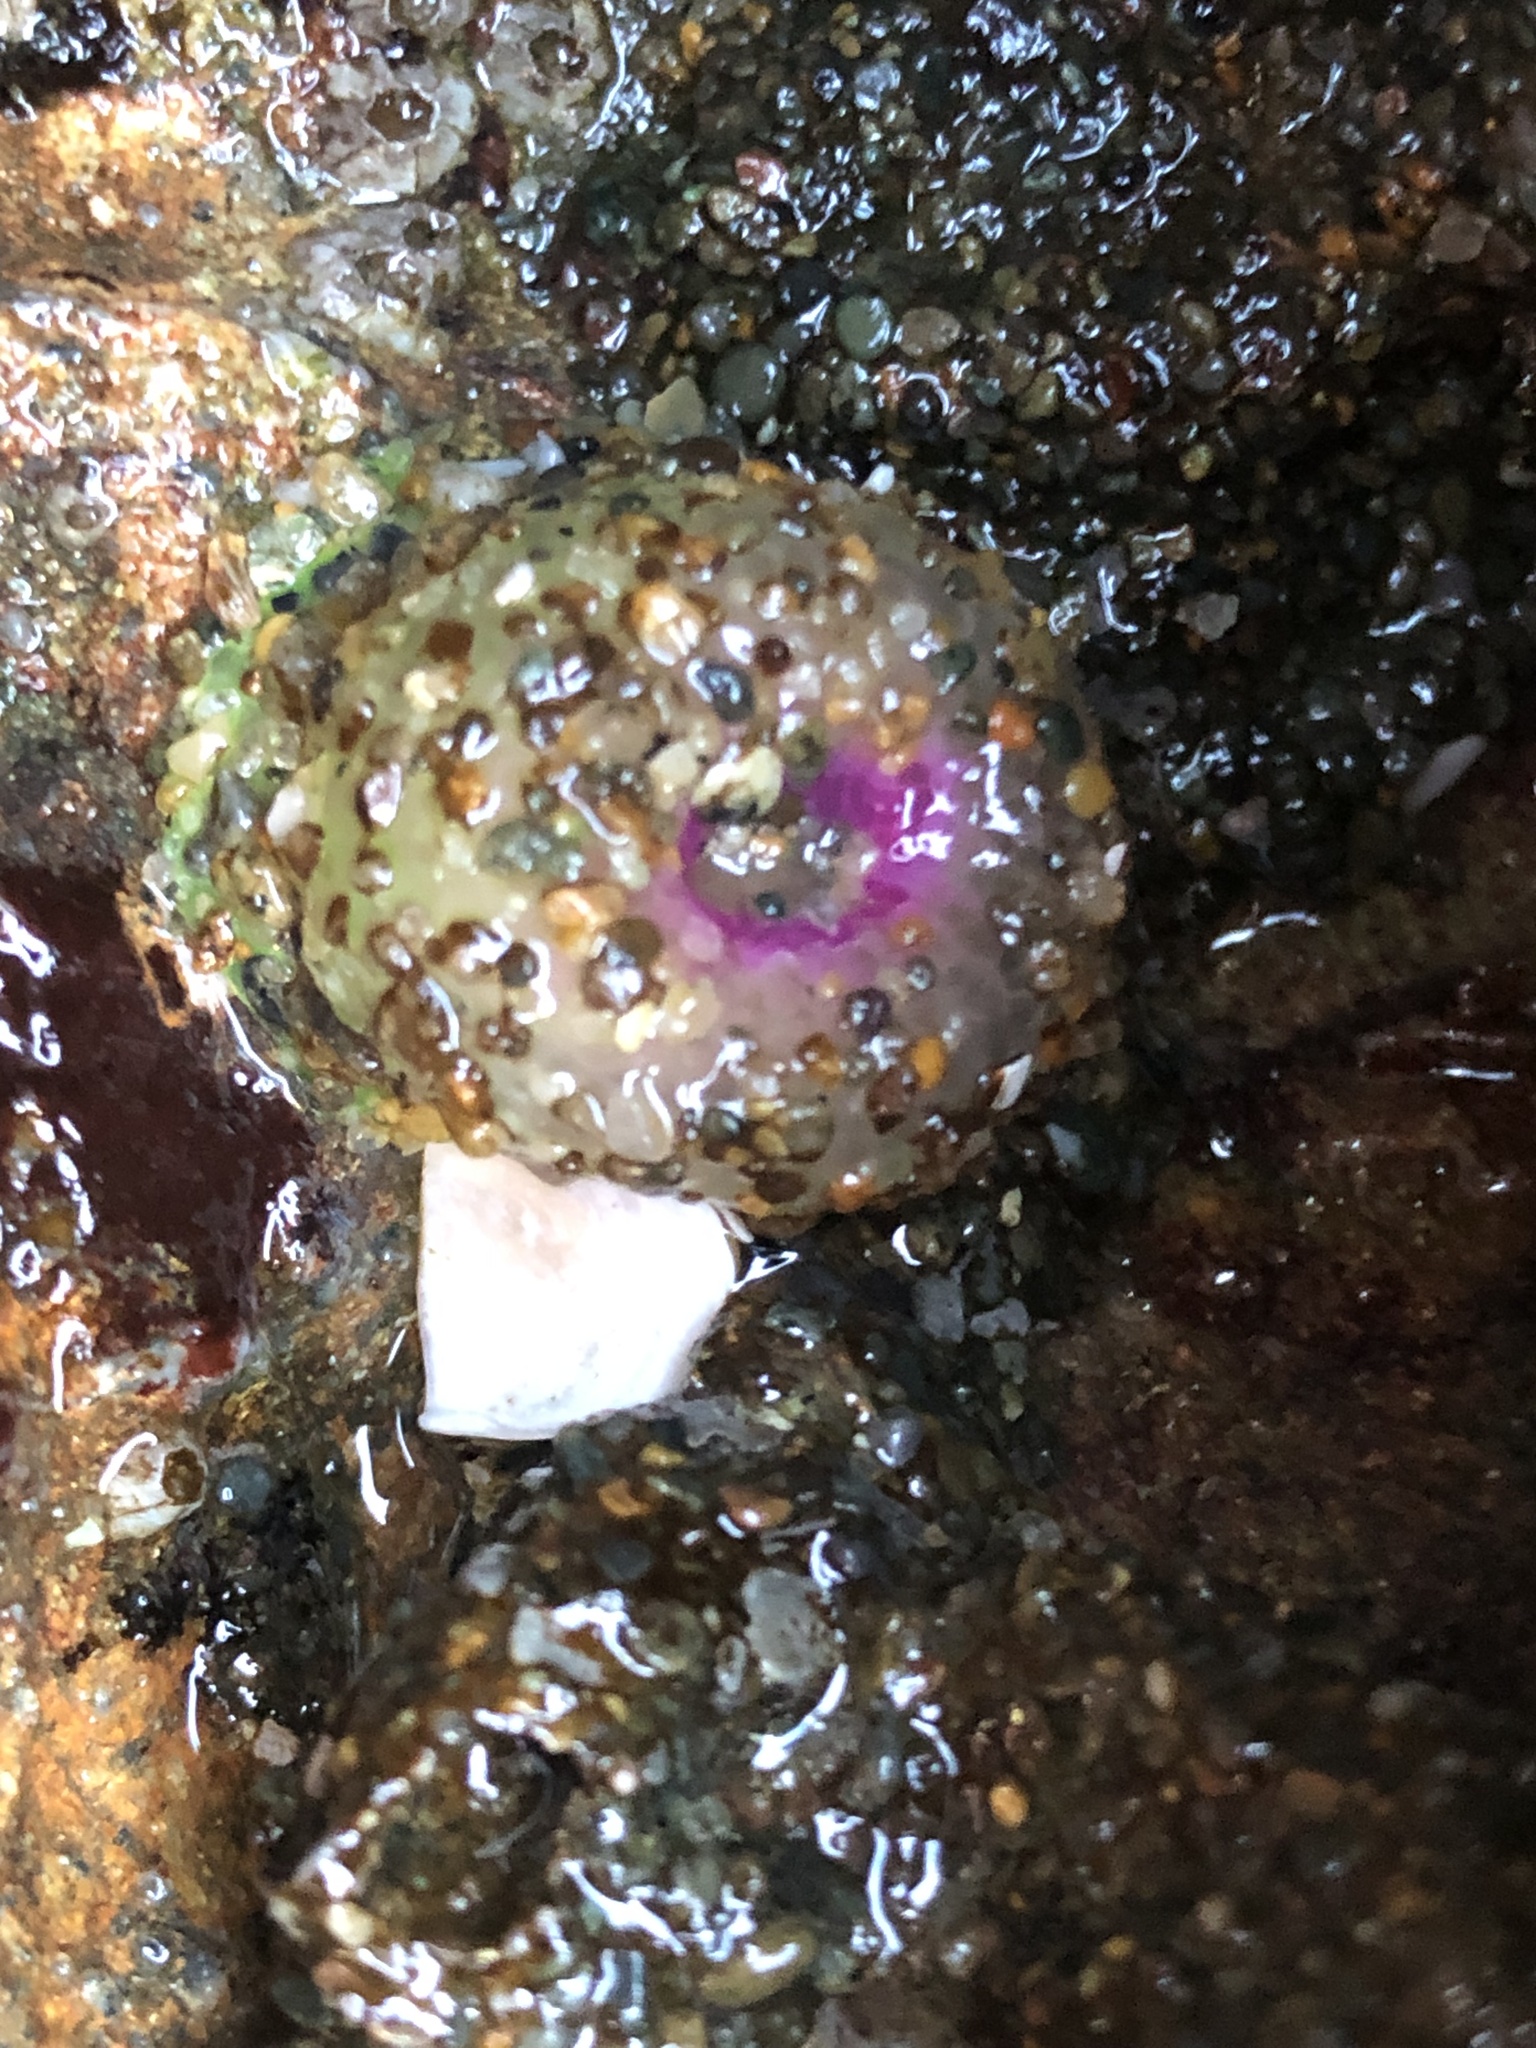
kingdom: Animalia
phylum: Cnidaria
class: Anthozoa
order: Actiniaria
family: Actiniidae
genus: Anthopleura
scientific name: Anthopleura elegantissima
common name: Clonal anemone
